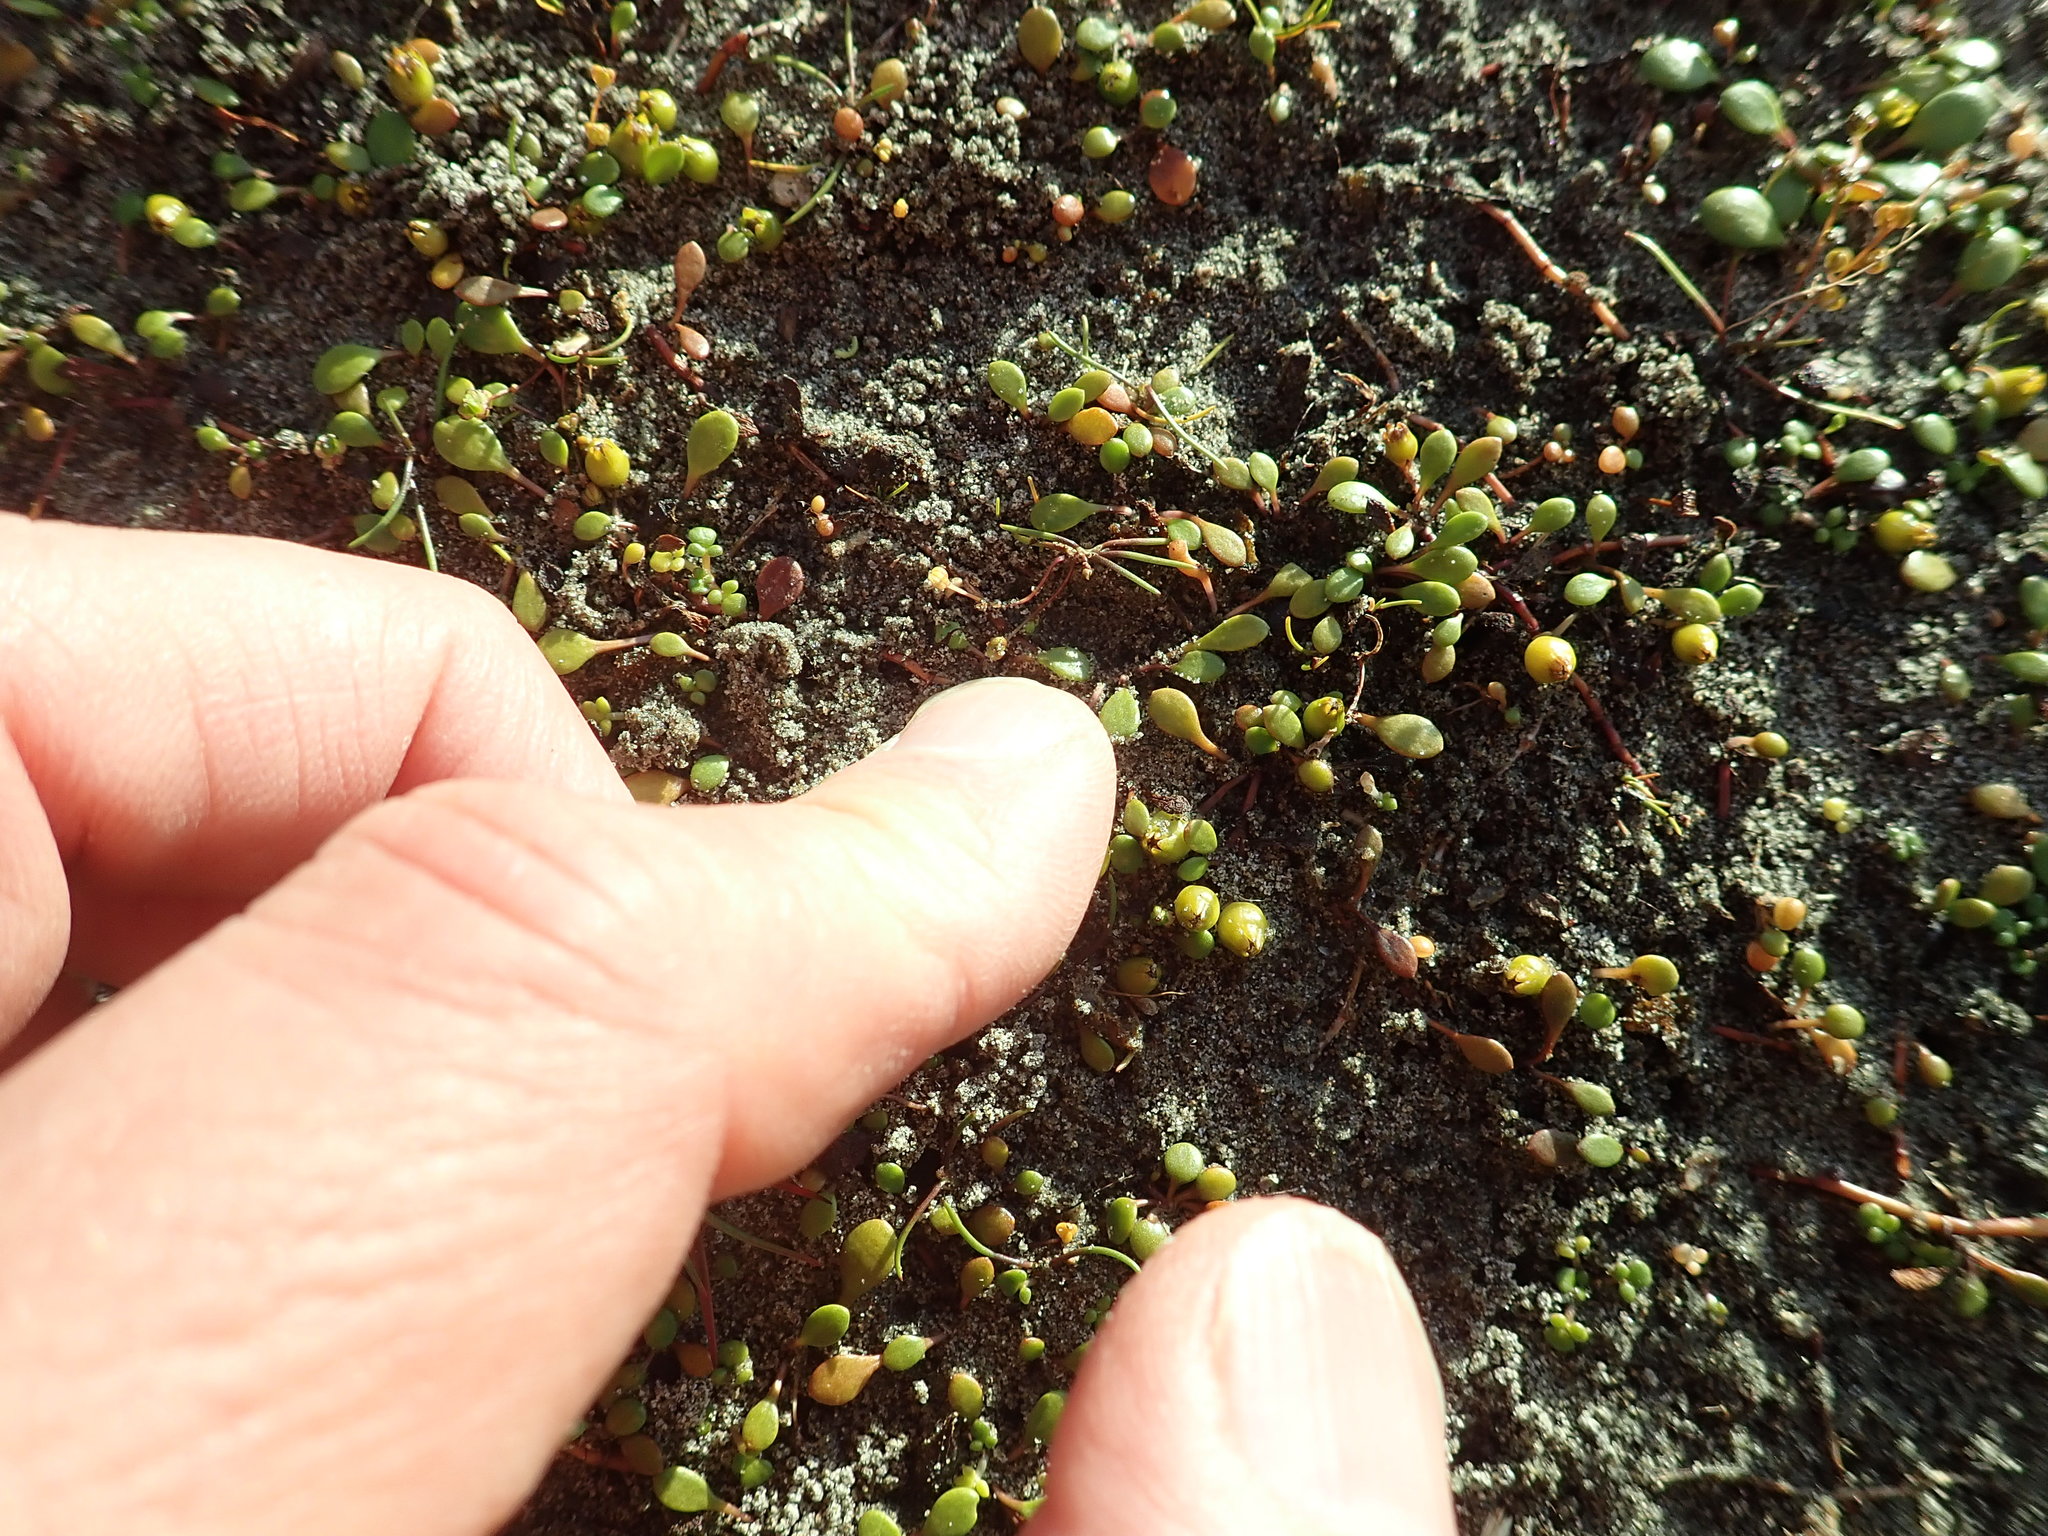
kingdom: Plantae
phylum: Tracheophyta
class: Liliopsida
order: Alismatales
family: Juncaginaceae
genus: Triglochin
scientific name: Triglochin striata
